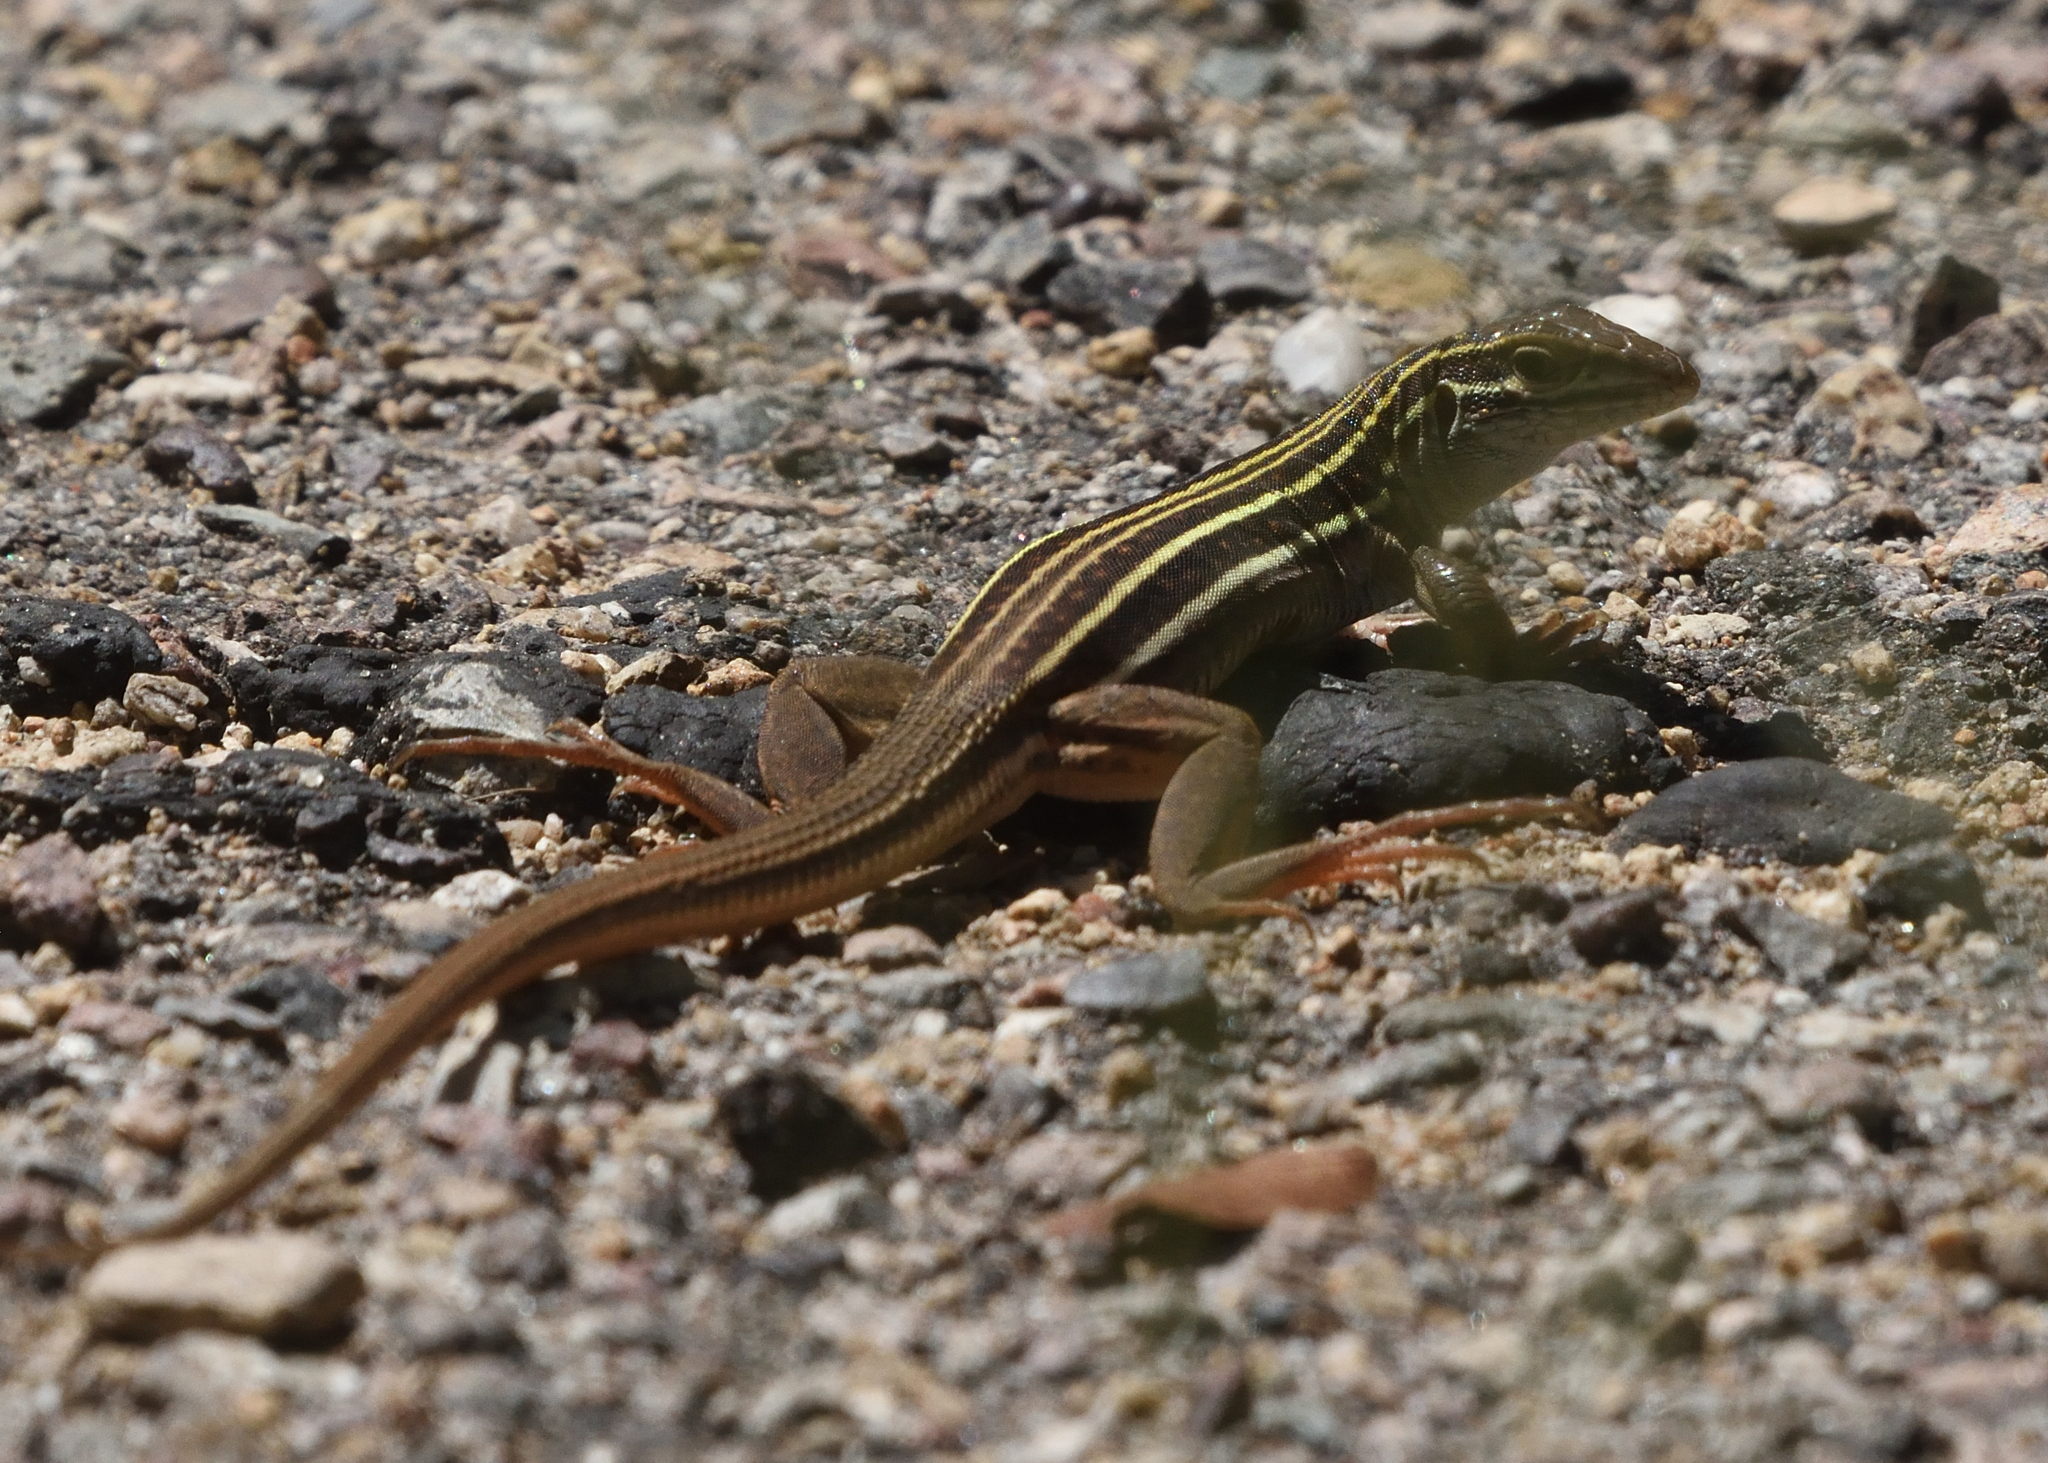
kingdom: Animalia
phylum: Chordata
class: Squamata
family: Teiidae
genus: Aspidoscelis
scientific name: Aspidoscelis sonorae
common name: Sonoran spotted whiptail
